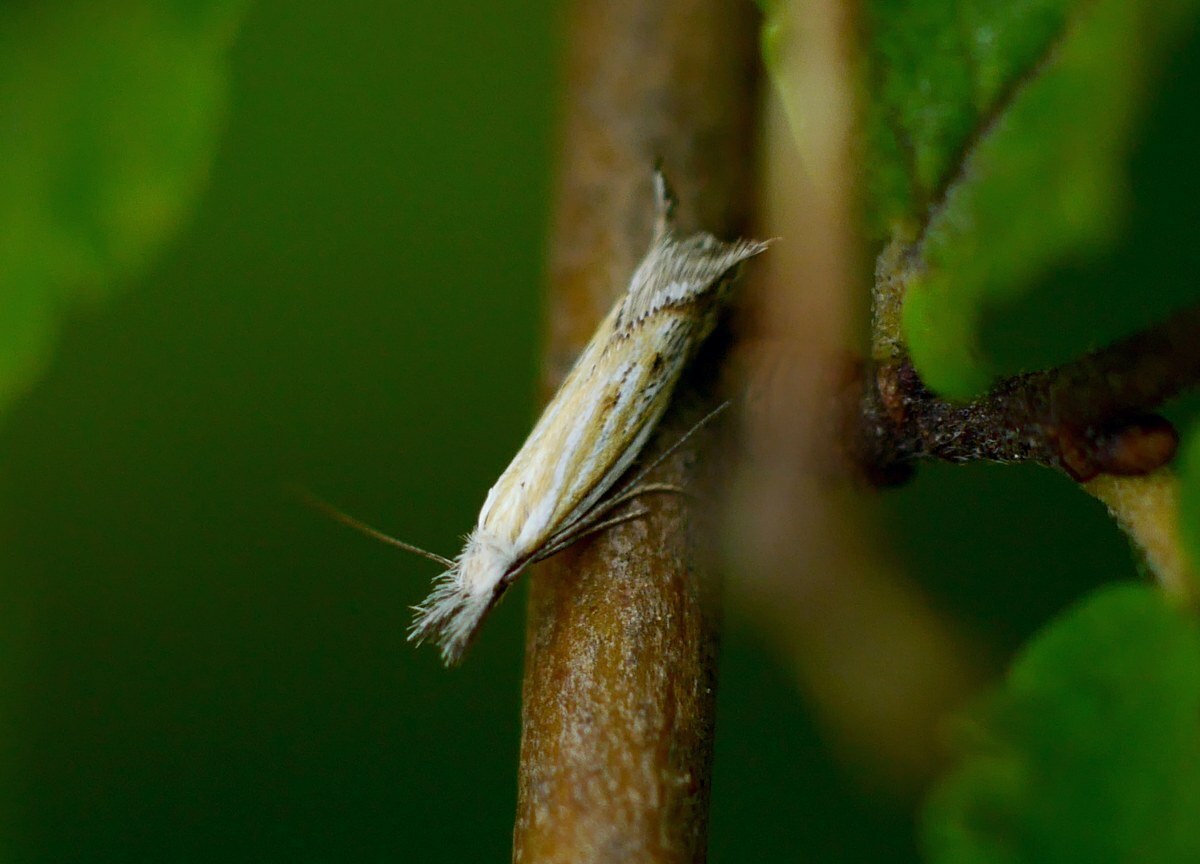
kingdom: Animalia
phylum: Arthropoda
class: Insecta
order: Lepidoptera
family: Oecophoridae
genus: Pleurota
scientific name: Pleurota huebneri
